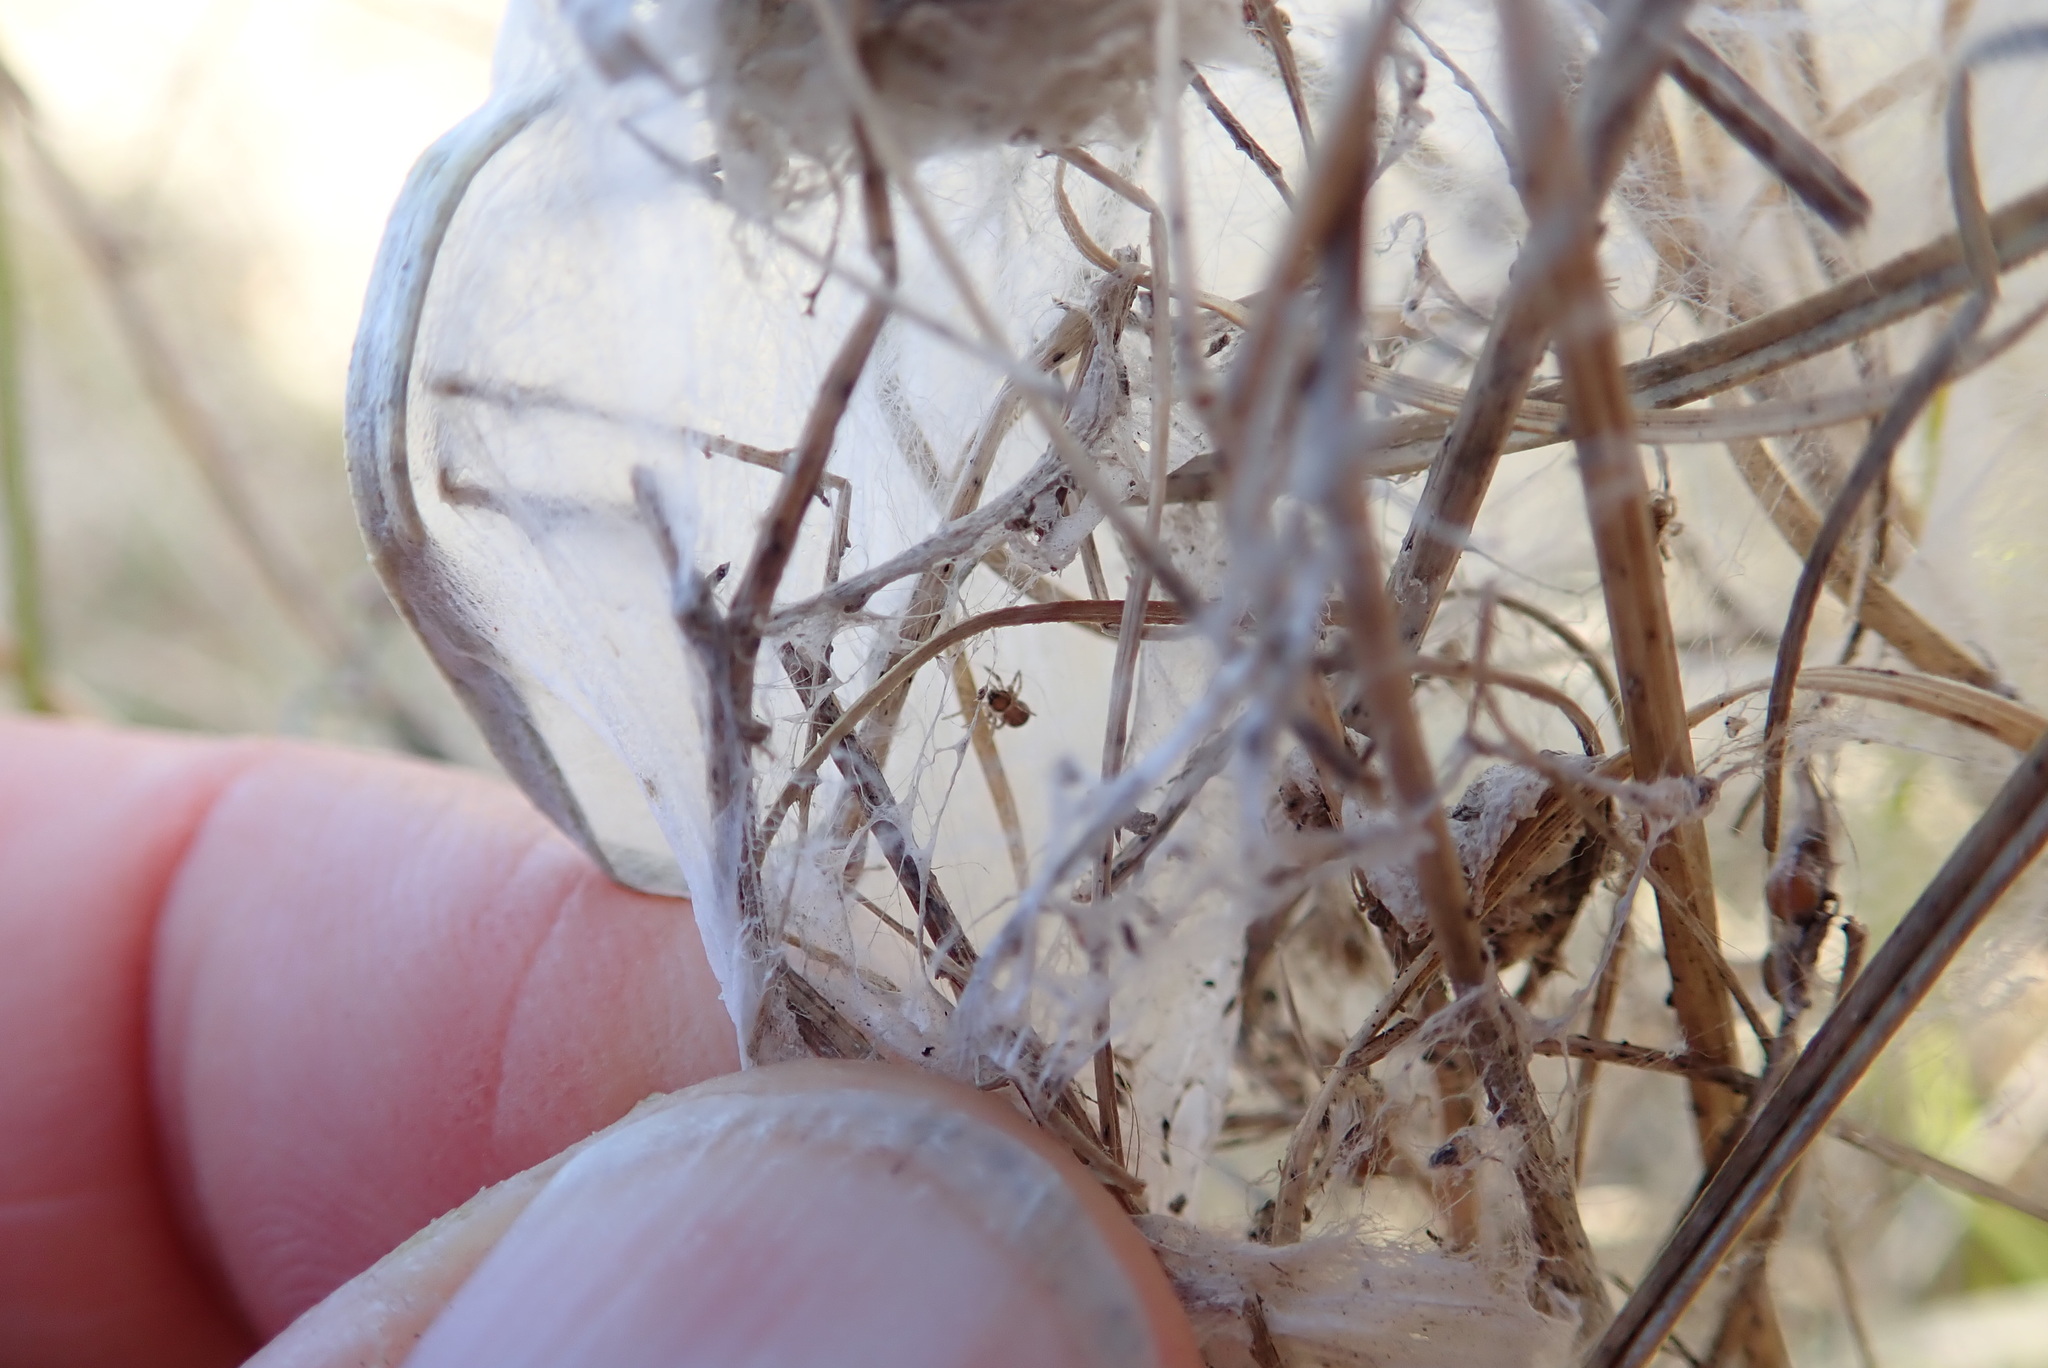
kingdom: Animalia
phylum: Arthropoda
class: Arachnida
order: Araneae
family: Pisauridae
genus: Dolomedes
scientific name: Dolomedes minor
